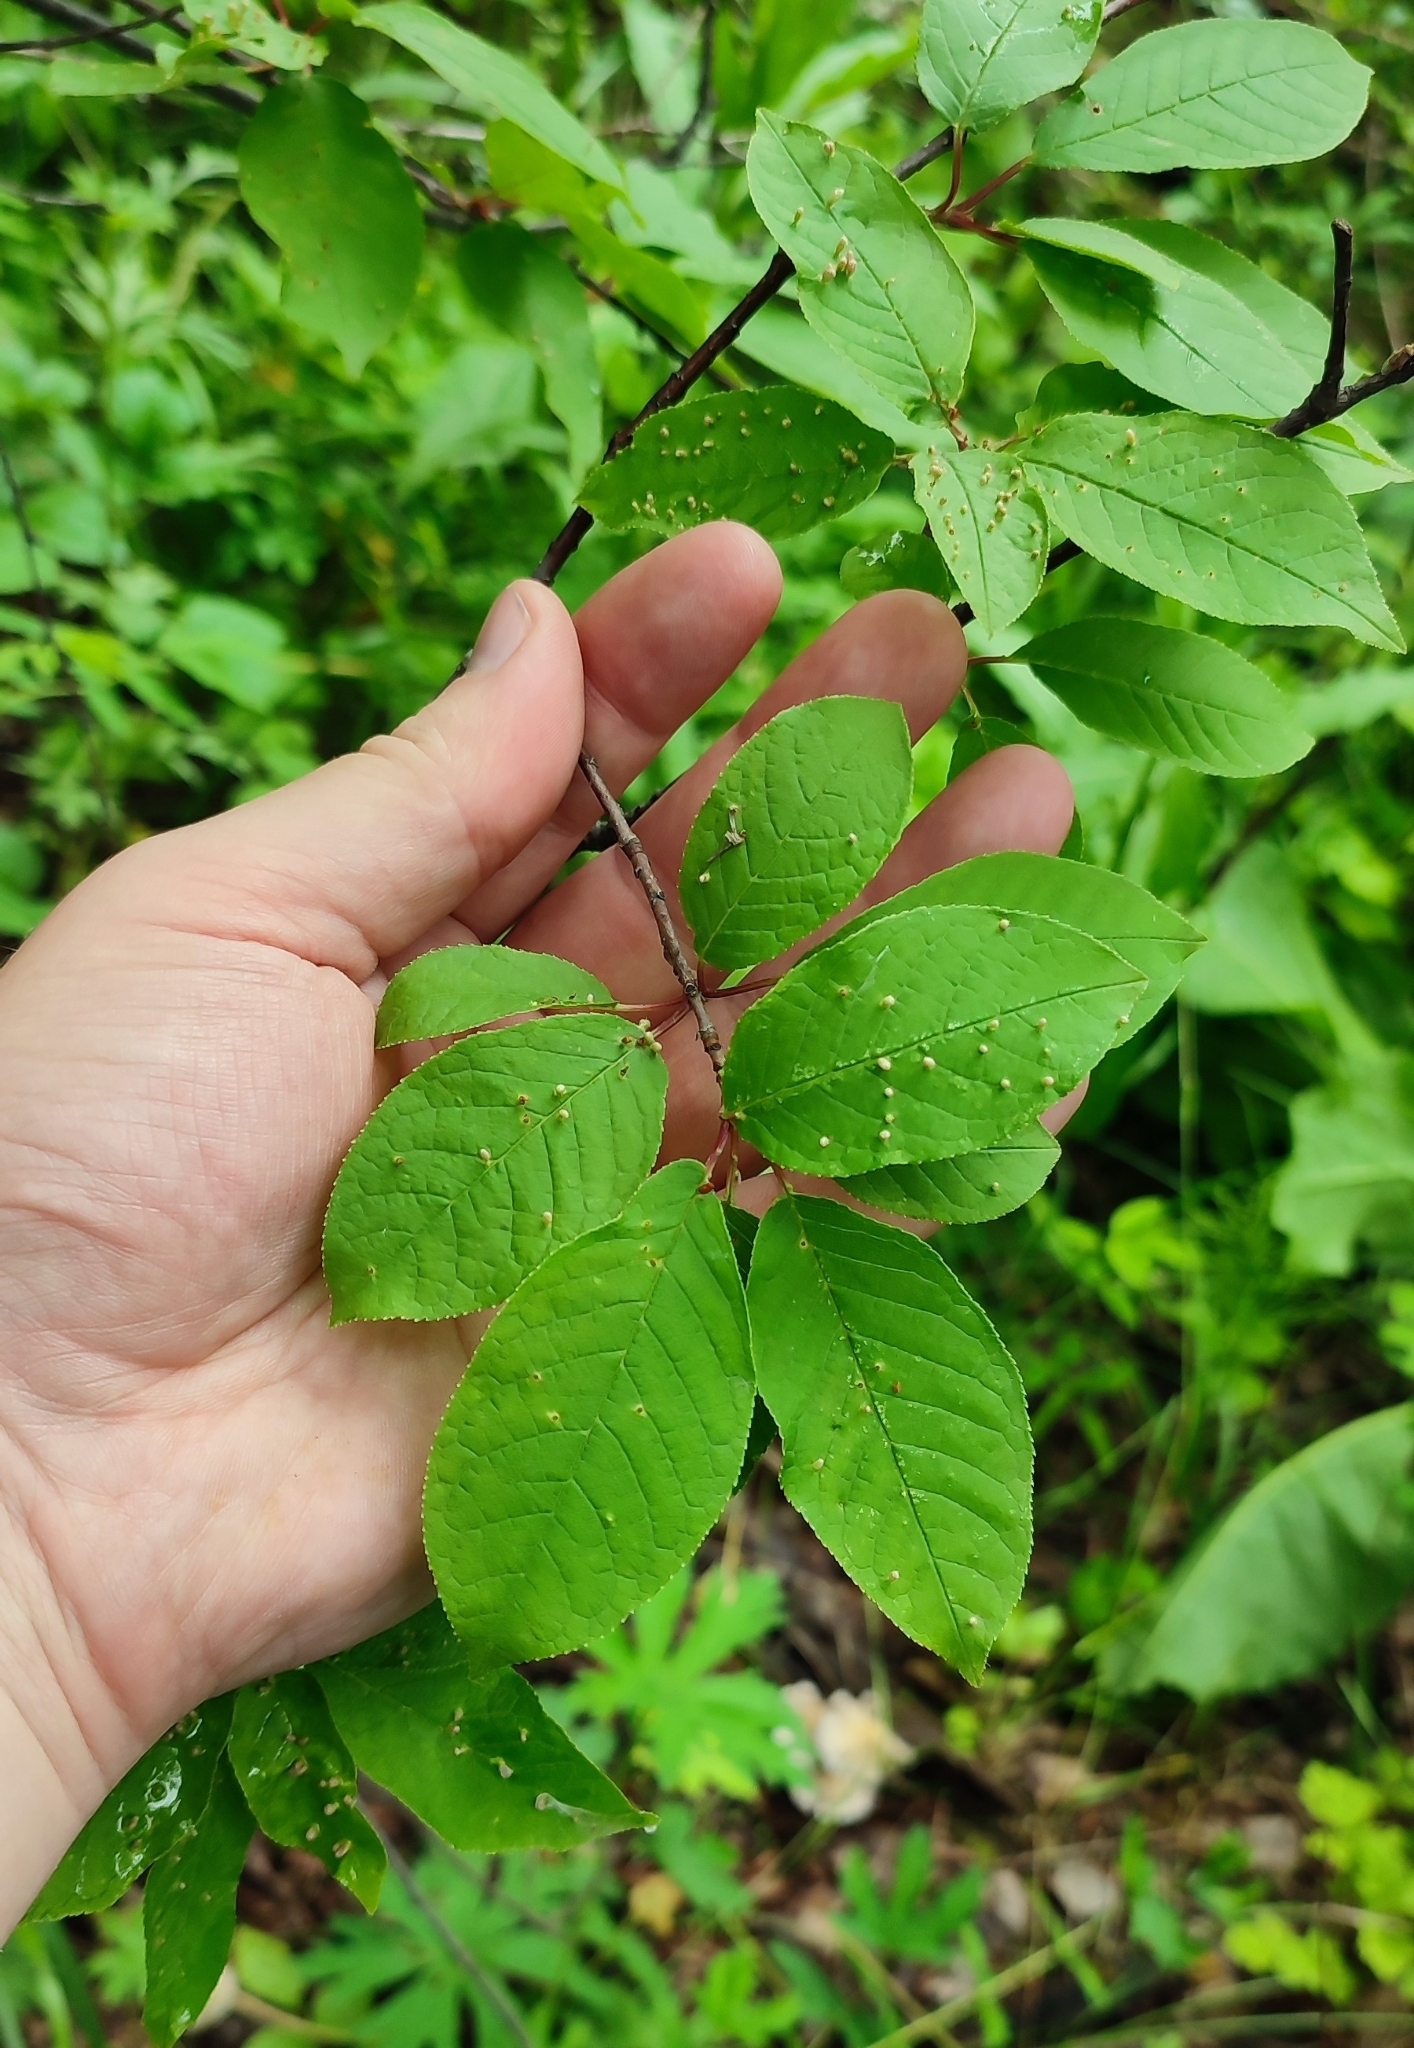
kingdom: Animalia
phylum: Arthropoda
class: Arachnida
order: Trombidiformes
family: Eriophyidae
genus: Phyllocoptes
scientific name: Phyllocoptes eupadi
